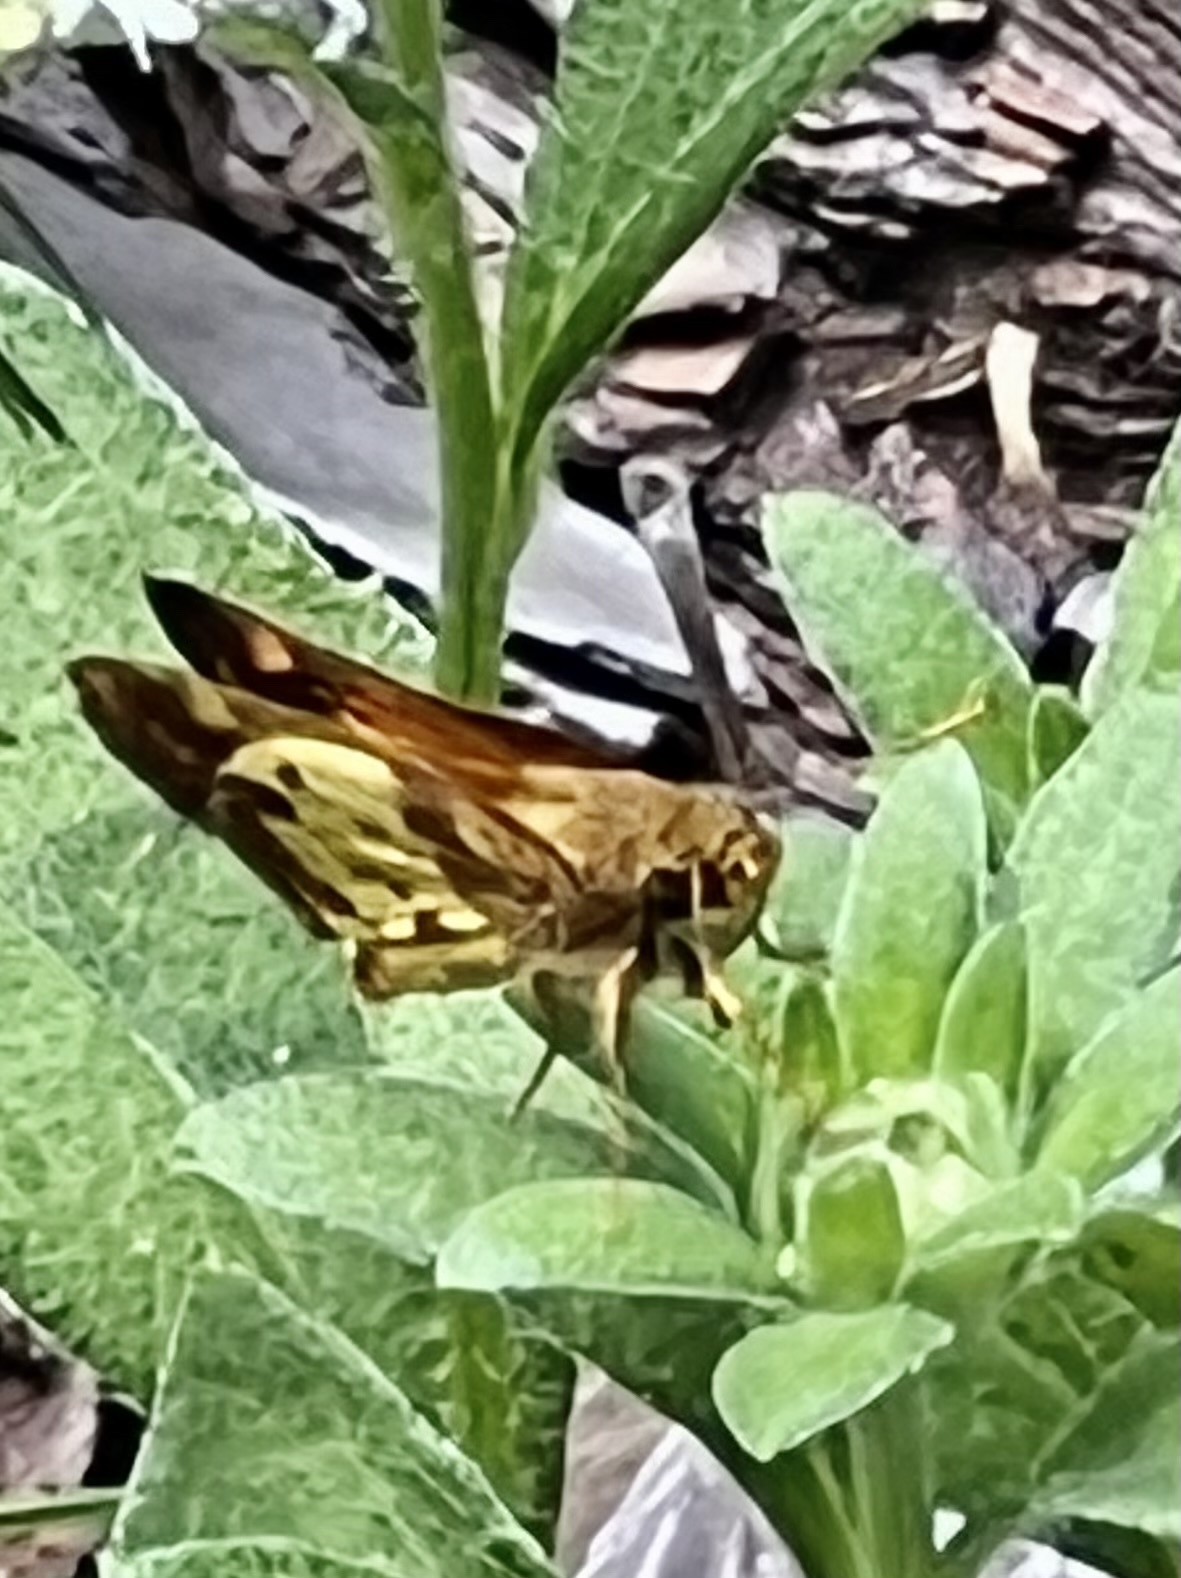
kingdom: Animalia
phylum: Arthropoda
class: Insecta
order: Lepidoptera
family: Hesperiidae
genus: Lon
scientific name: Lon zabulon
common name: Zabulon skipper
